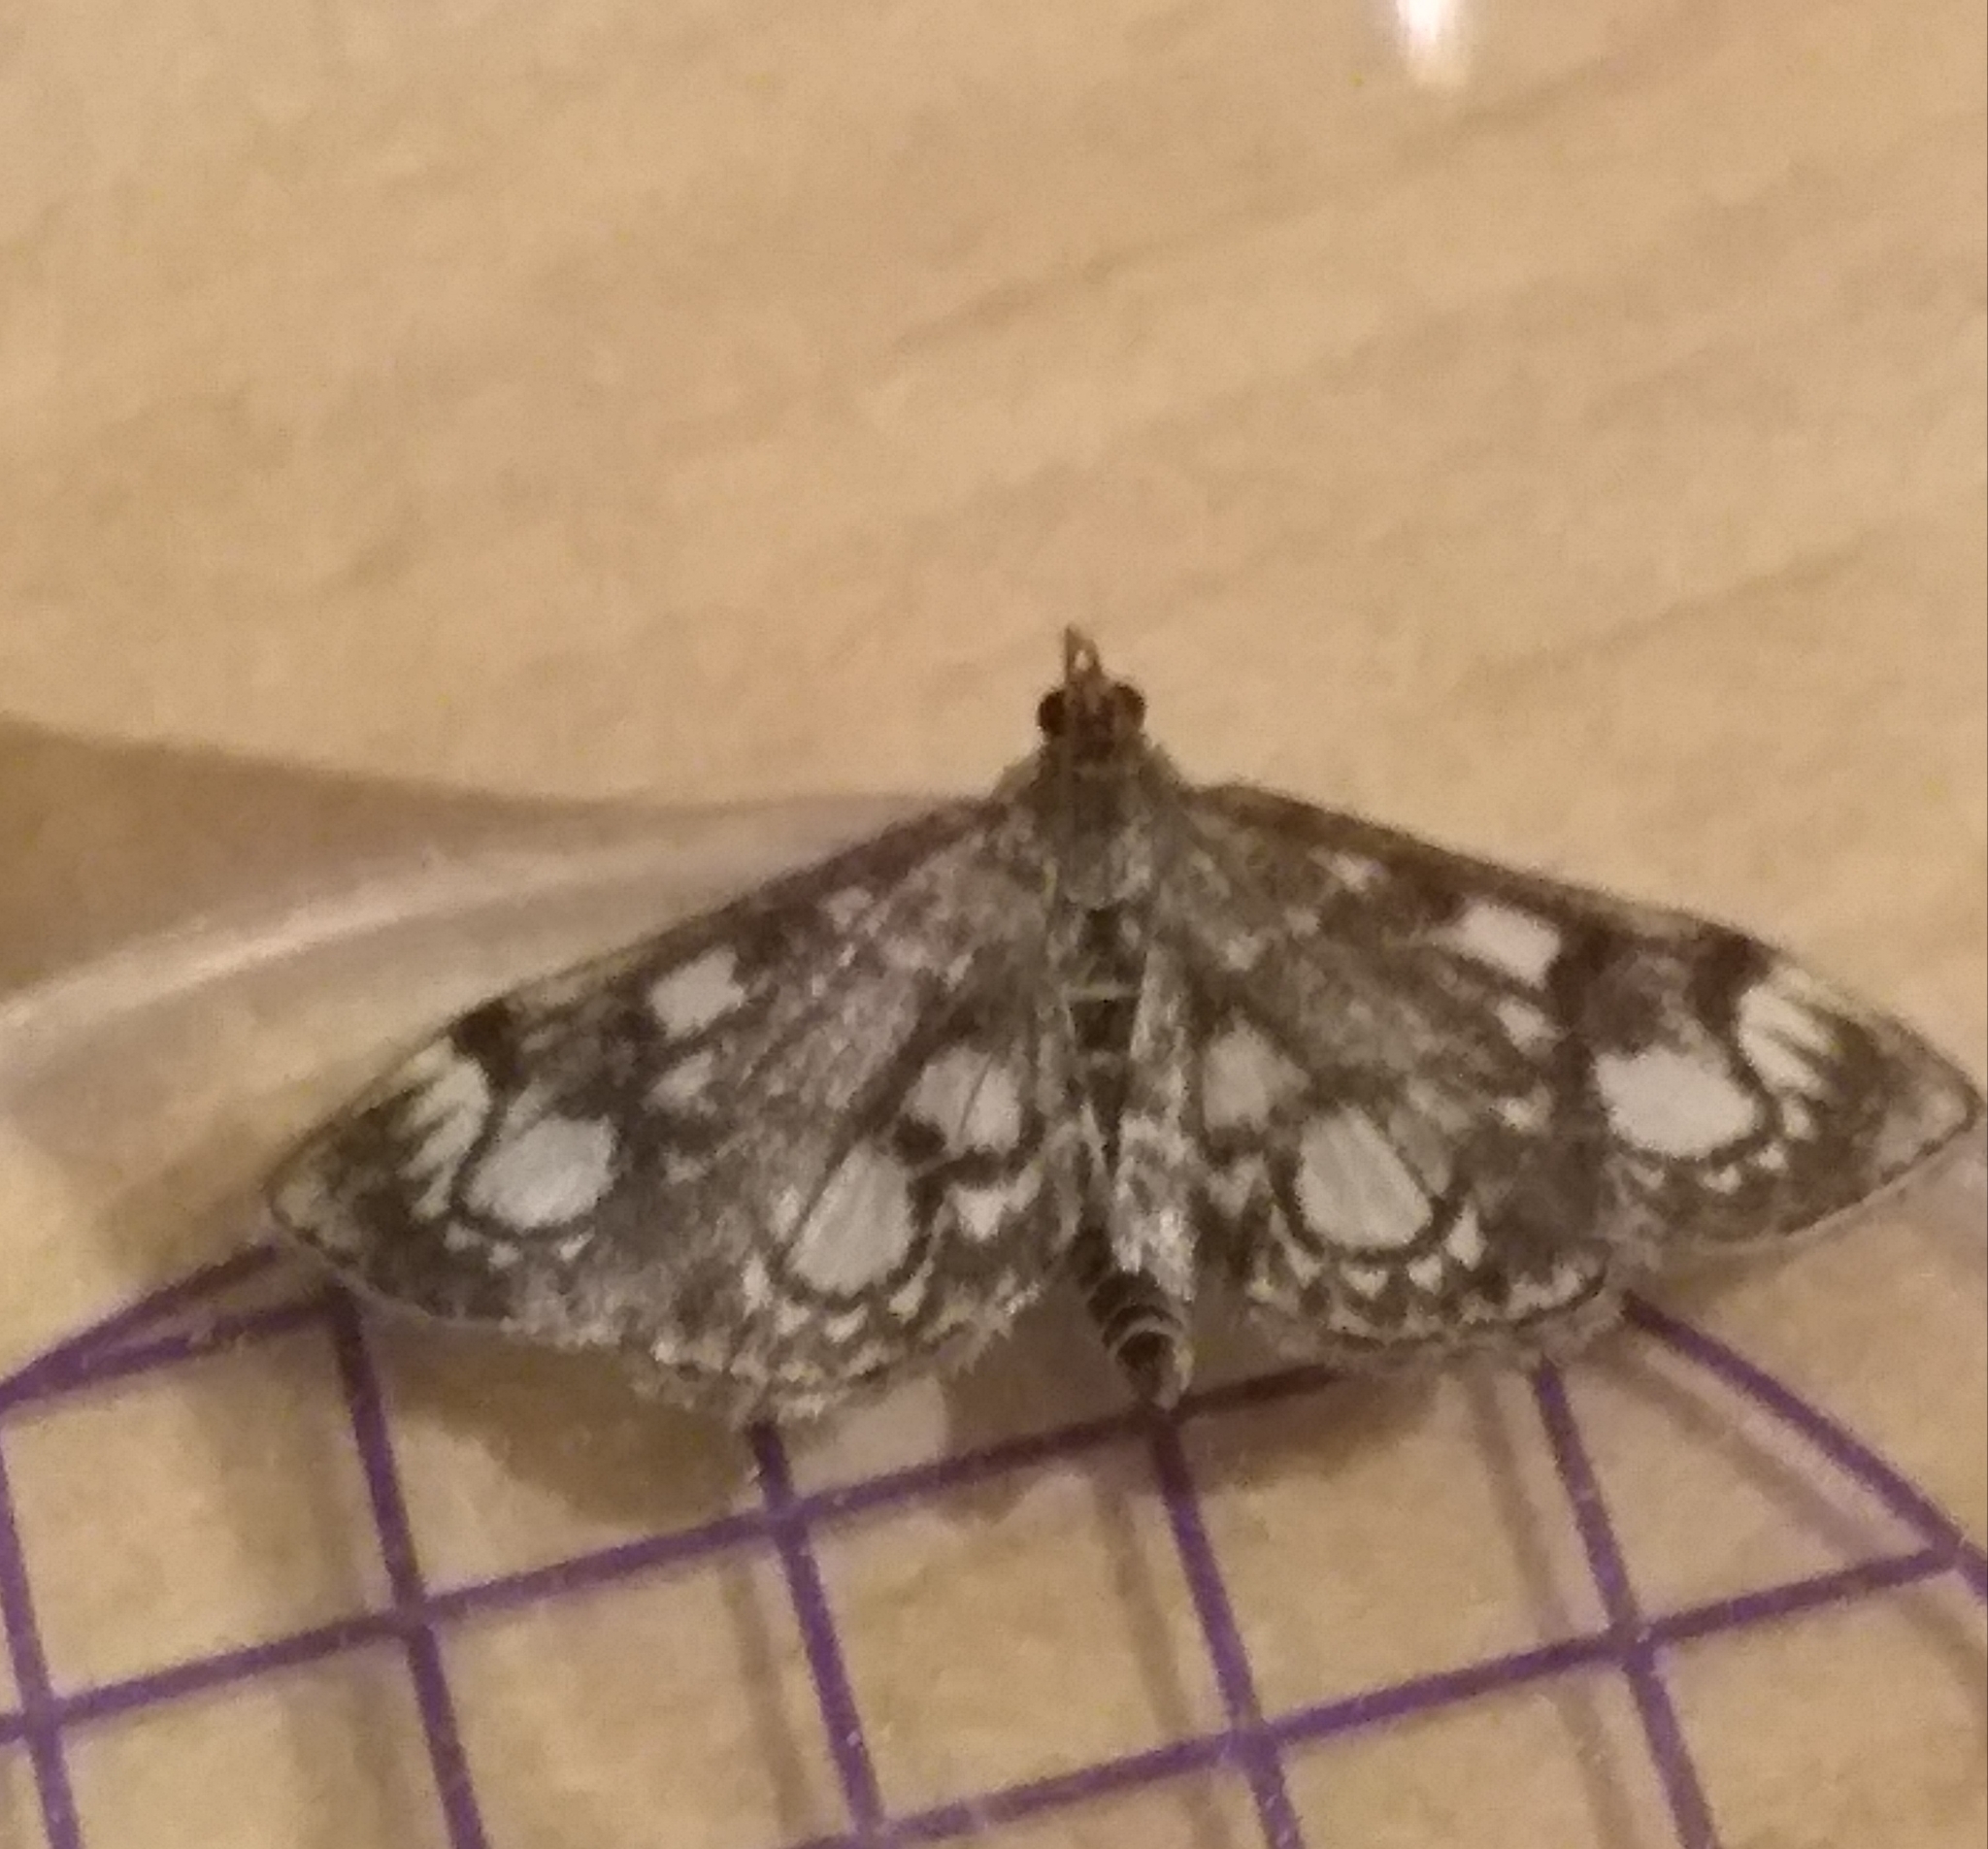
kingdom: Animalia
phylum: Arthropoda
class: Insecta
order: Lepidoptera
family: Crambidae
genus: Anania
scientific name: Anania coronata
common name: Elder pearl
